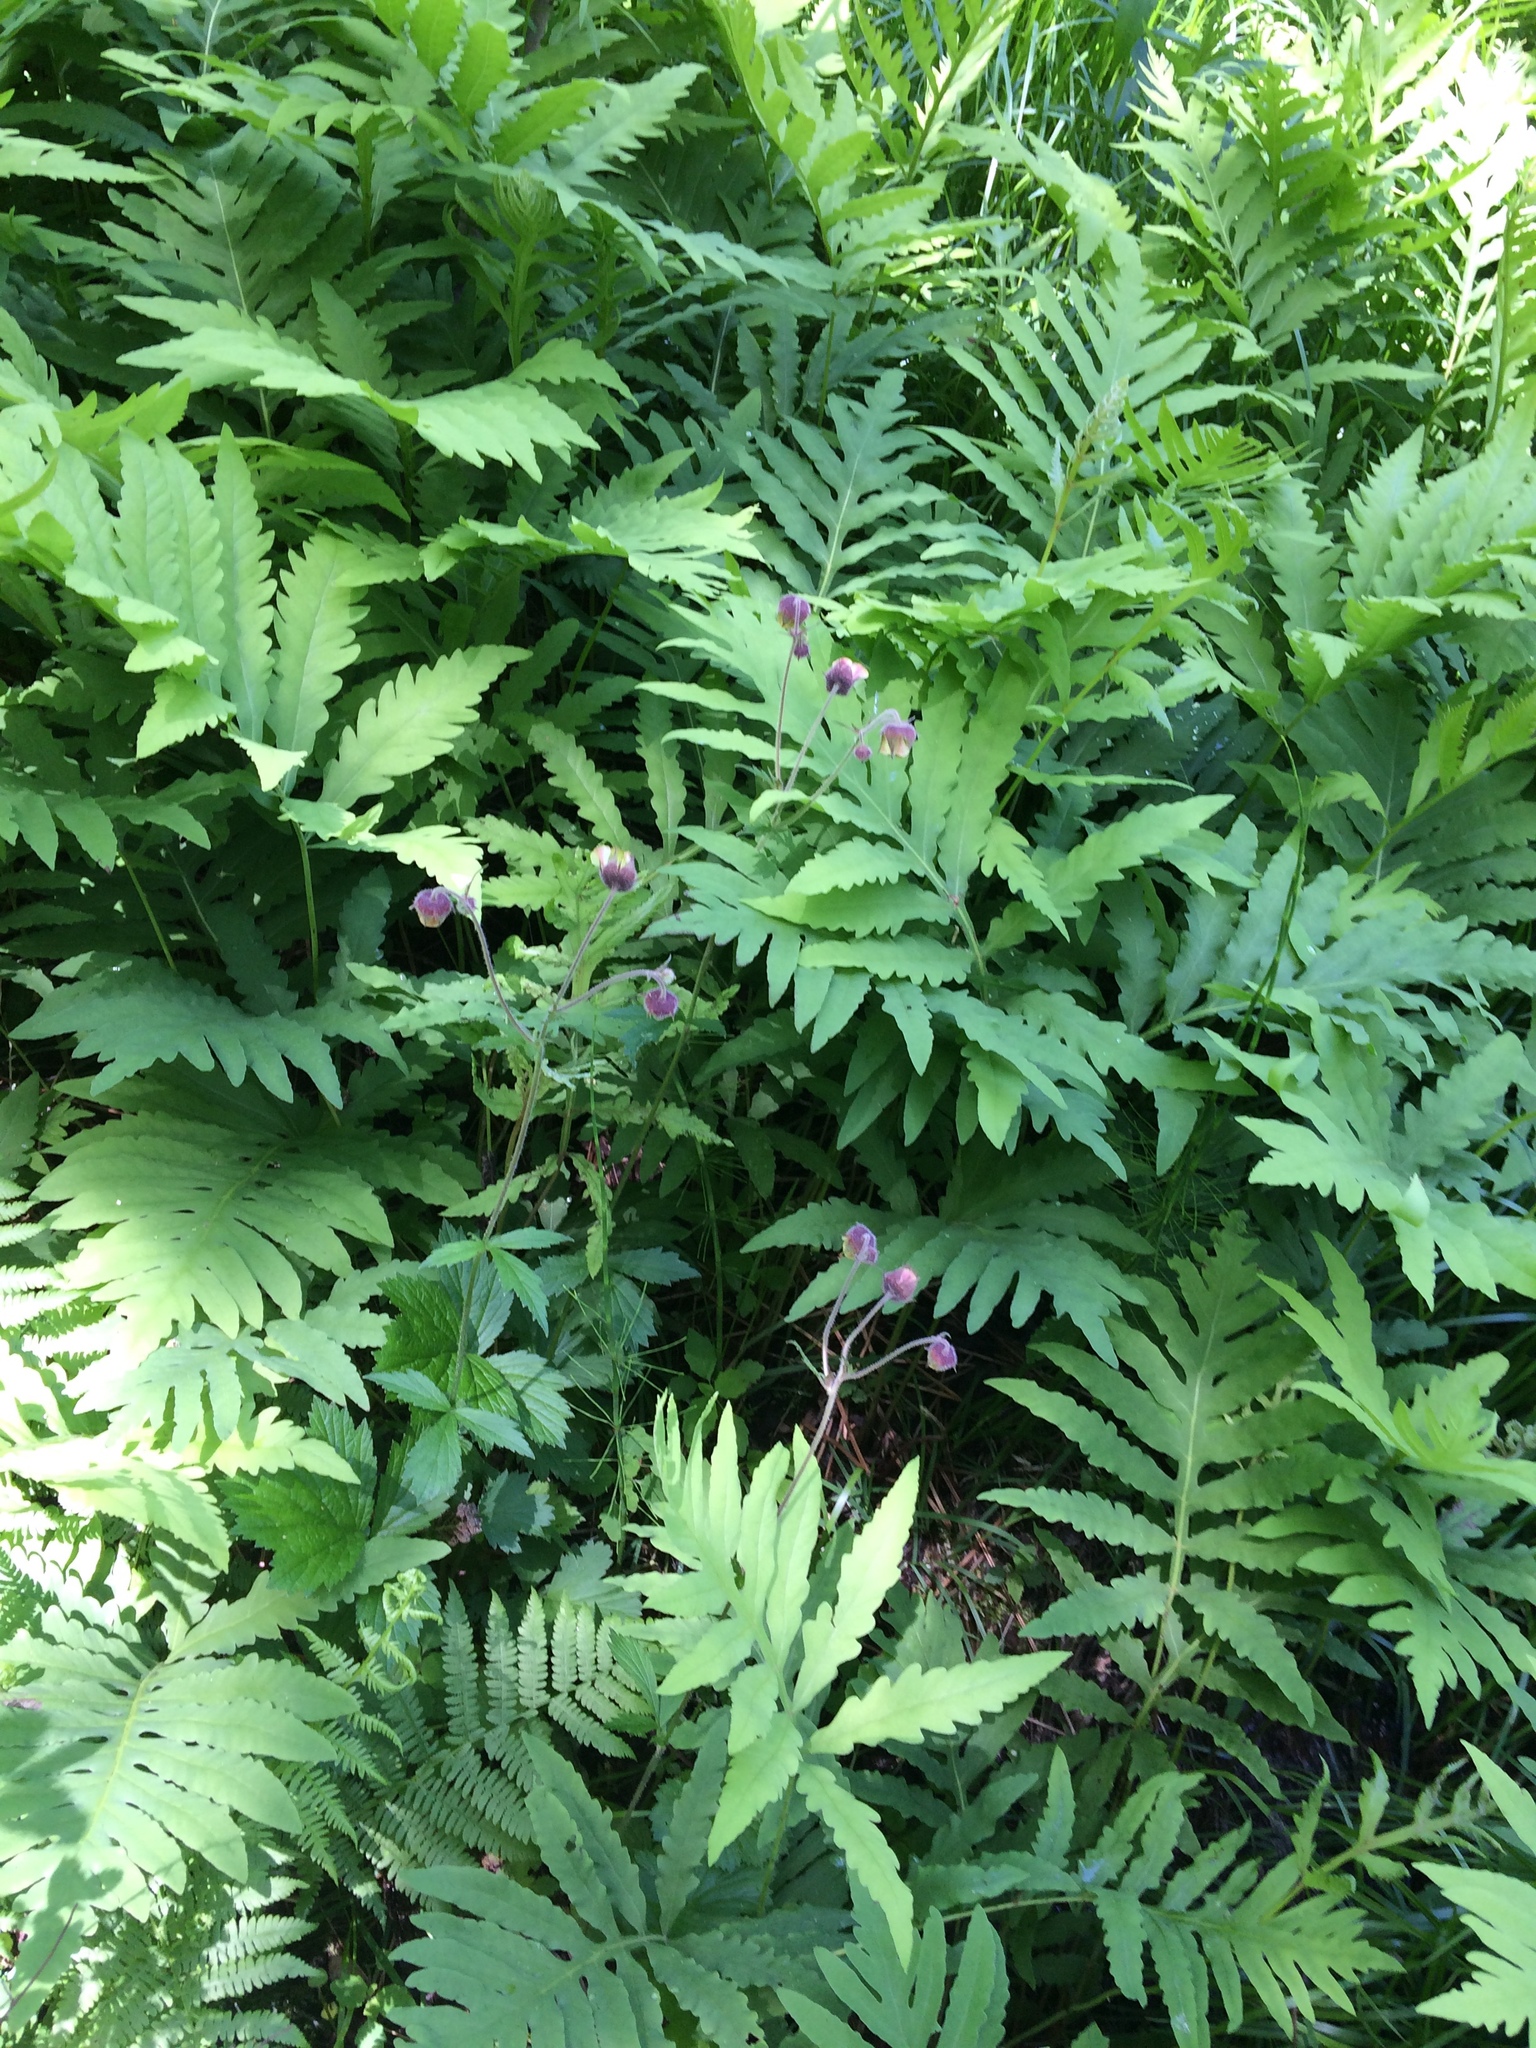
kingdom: Plantae
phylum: Tracheophyta
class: Magnoliopsida
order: Rosales
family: Rosaceae
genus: Geum
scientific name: Geum rivale
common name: Water avens
